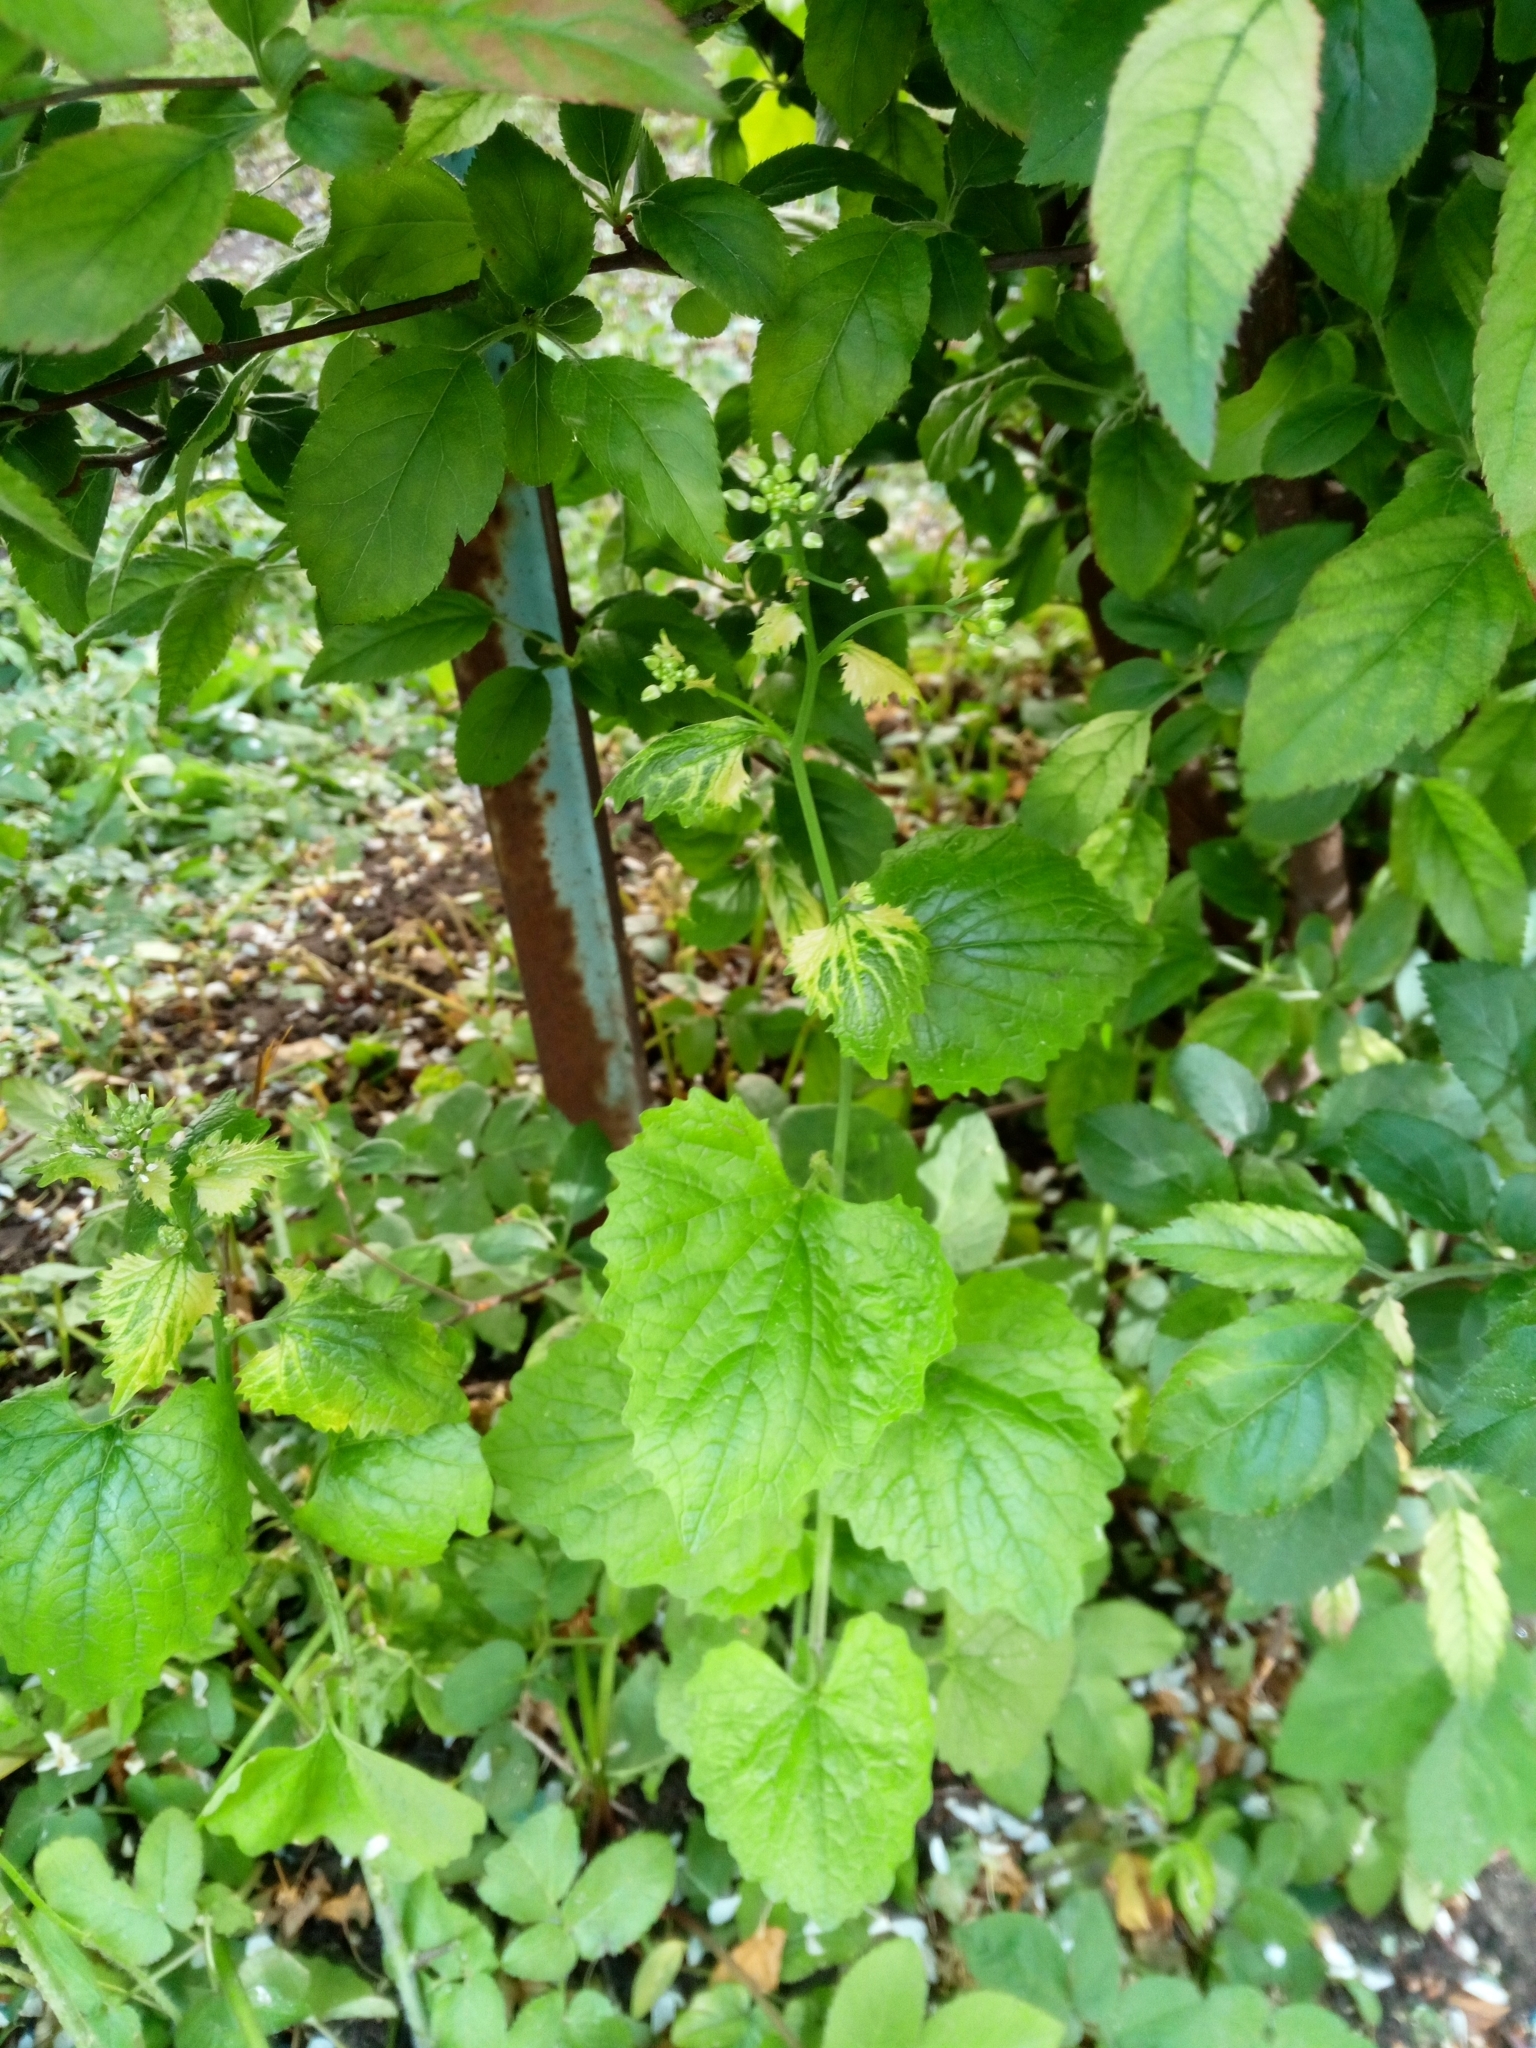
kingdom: Plantae
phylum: Tracheophyta
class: Magnoliopsida
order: Brassicales
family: Brassicaceae
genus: Alliaria
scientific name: Alliaria petiolata
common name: Garlic mustard
